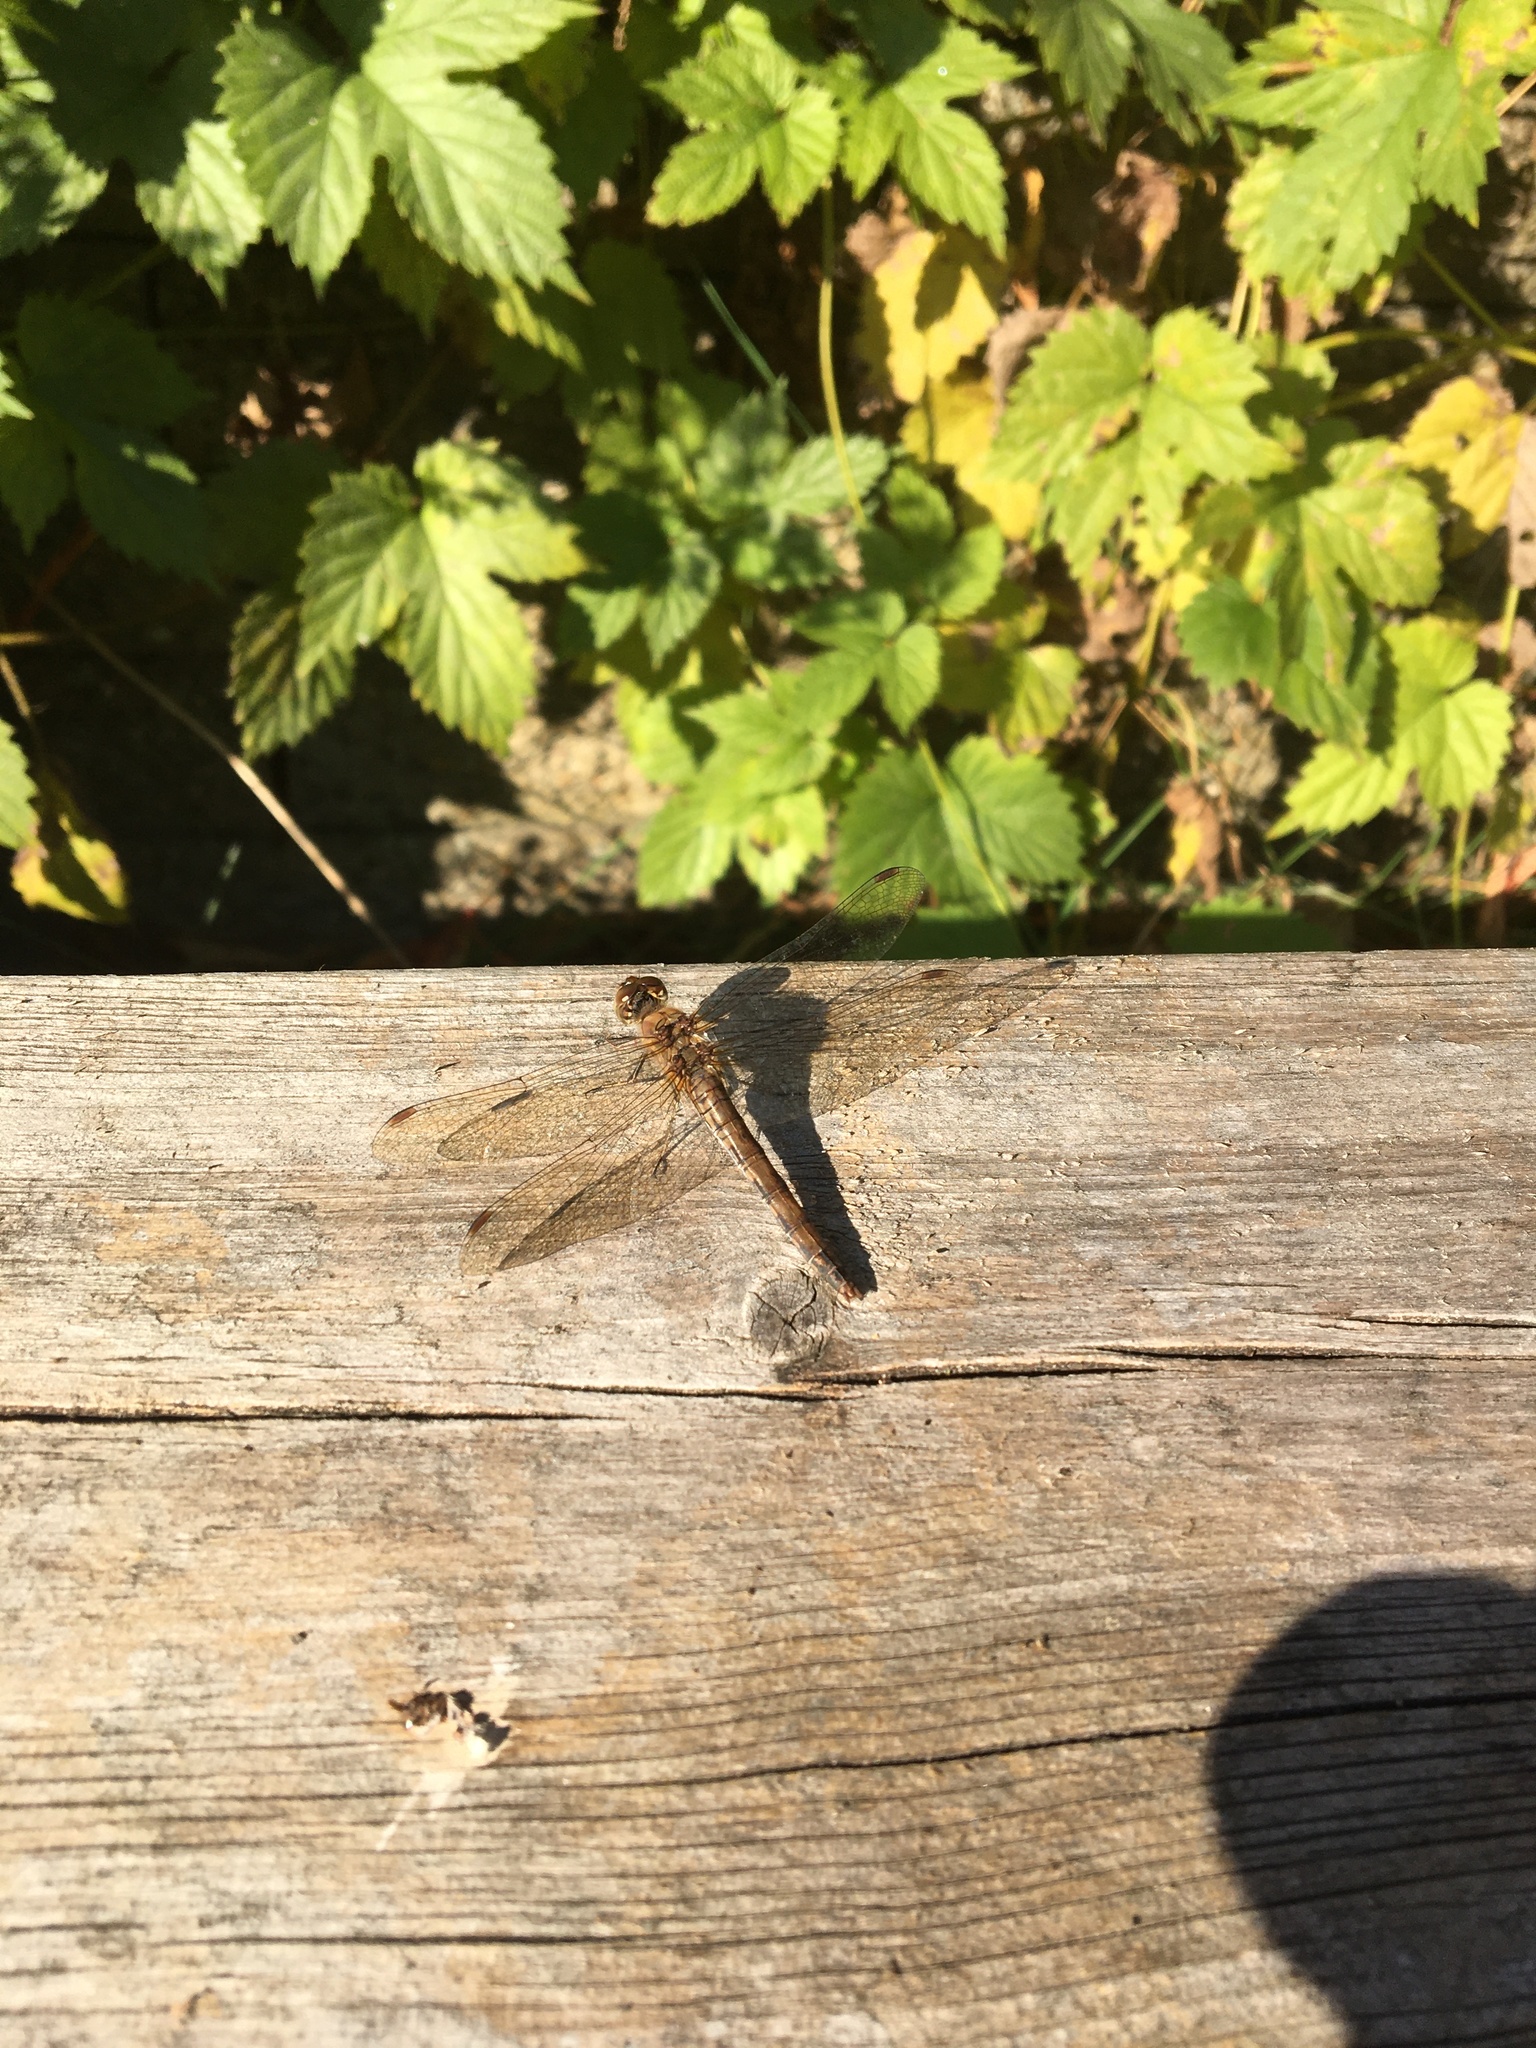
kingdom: Animalia
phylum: Arthropoda
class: Insecta
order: Odonata
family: Libellulidae
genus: Sympetrum
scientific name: Sympetrum striolatum
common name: Common darter
